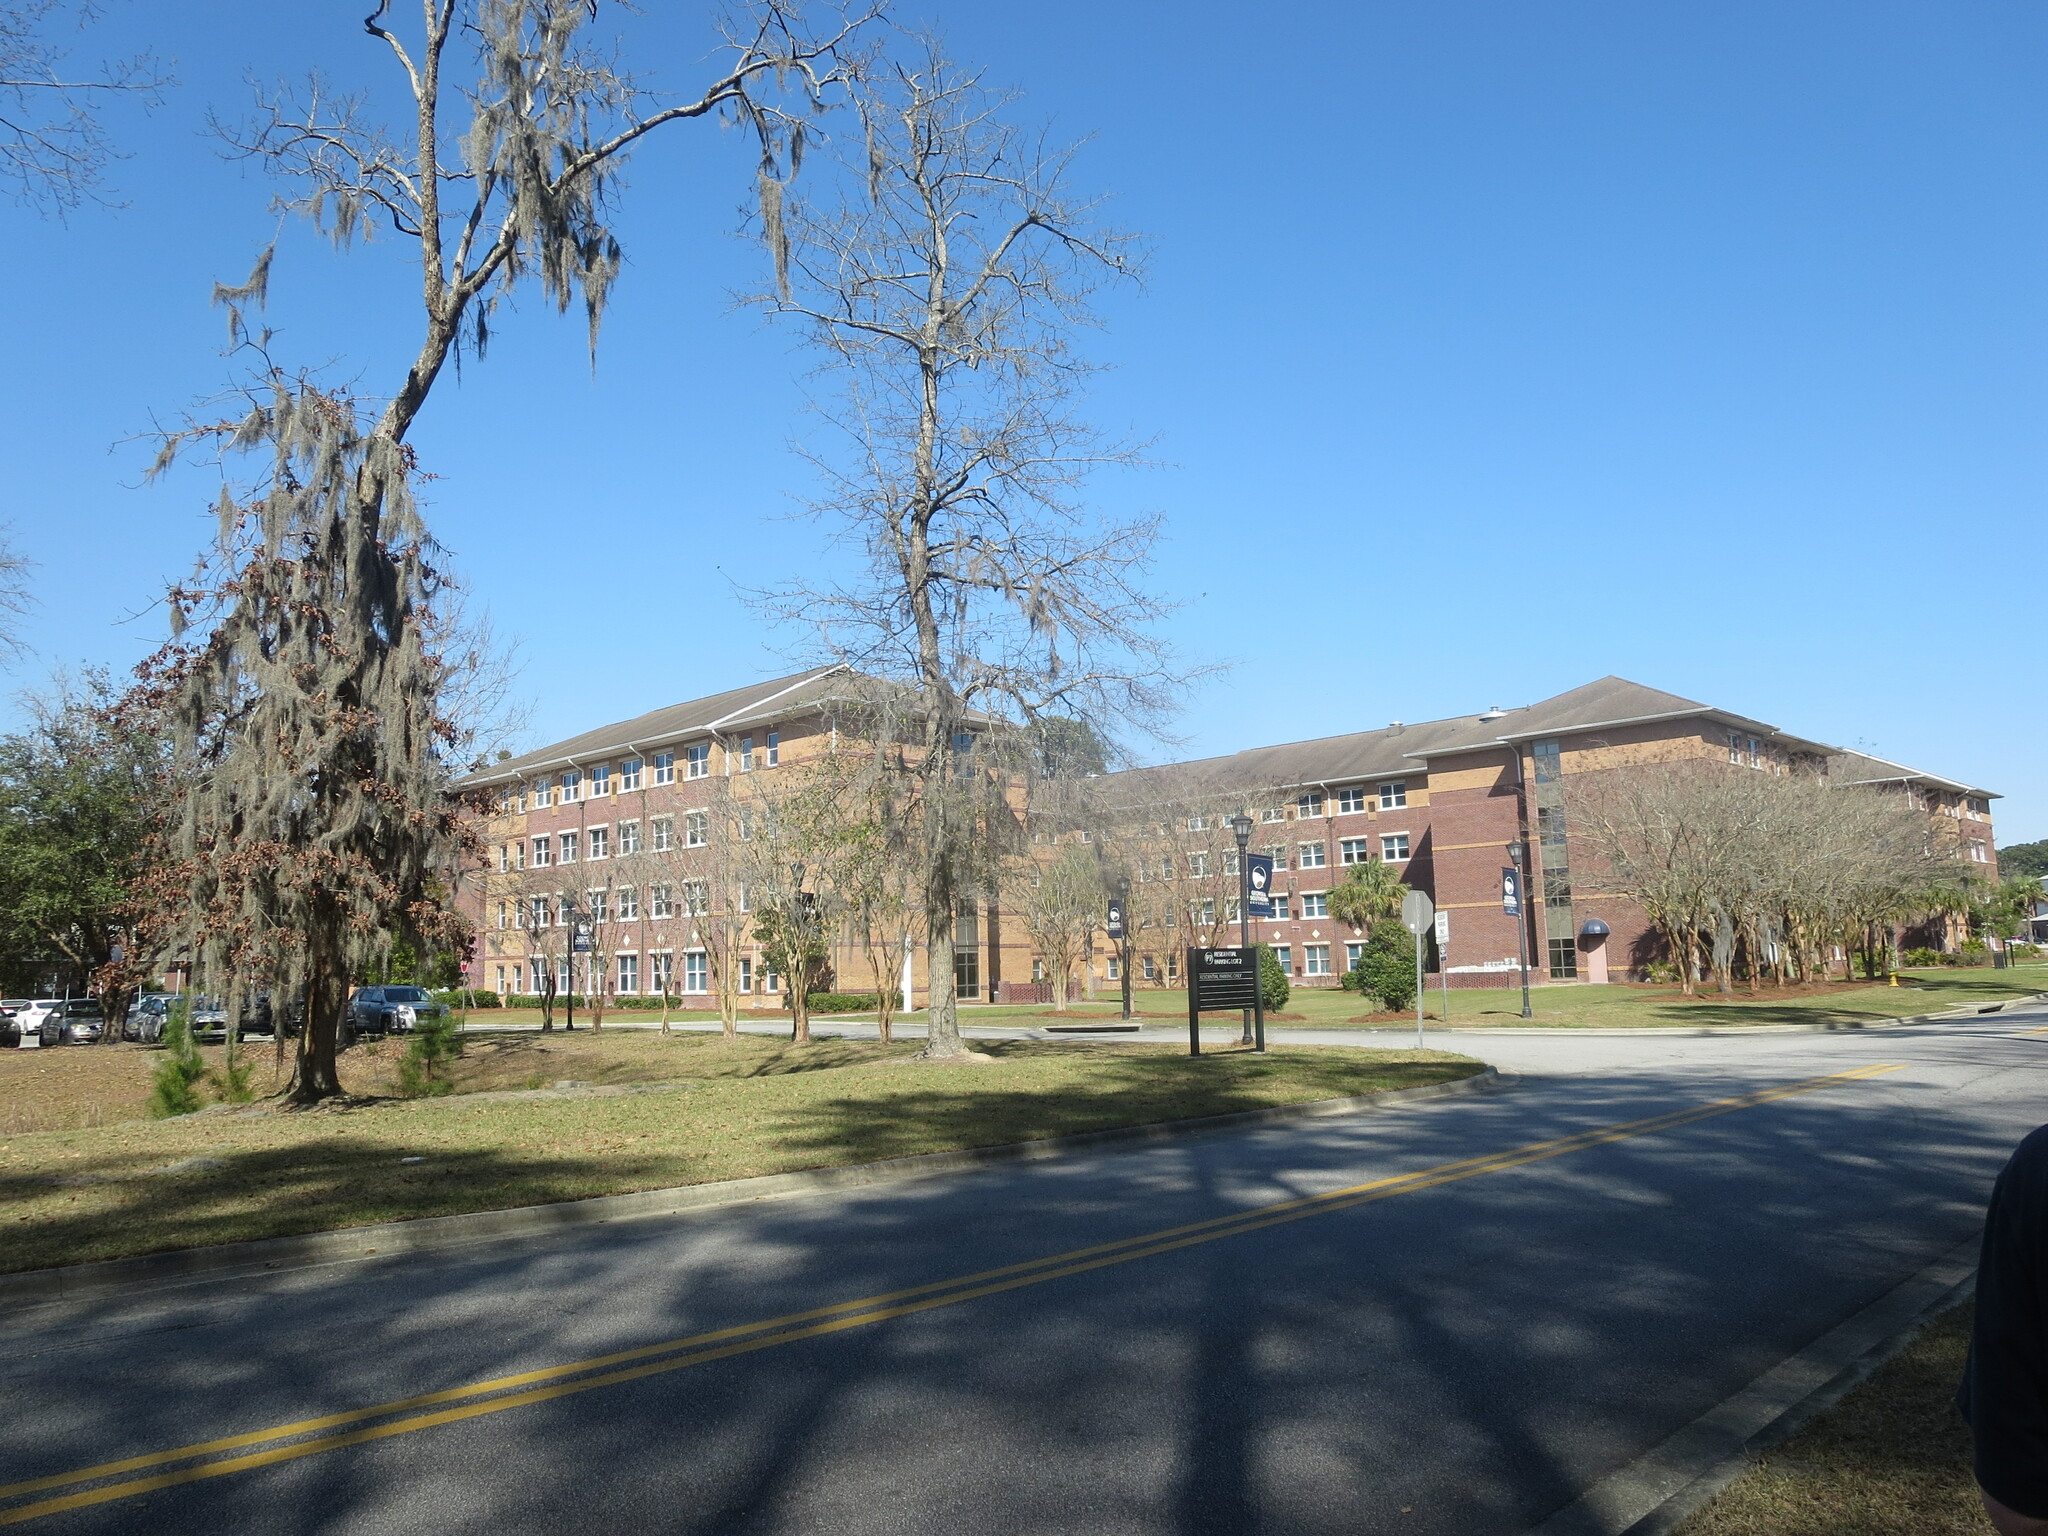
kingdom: Plantae
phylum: Tracheophyta
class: Liliopsida
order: Poales
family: Bromeliaceae
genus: Tillandsia
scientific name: Tillandsia usneoides
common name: Spanish moss
